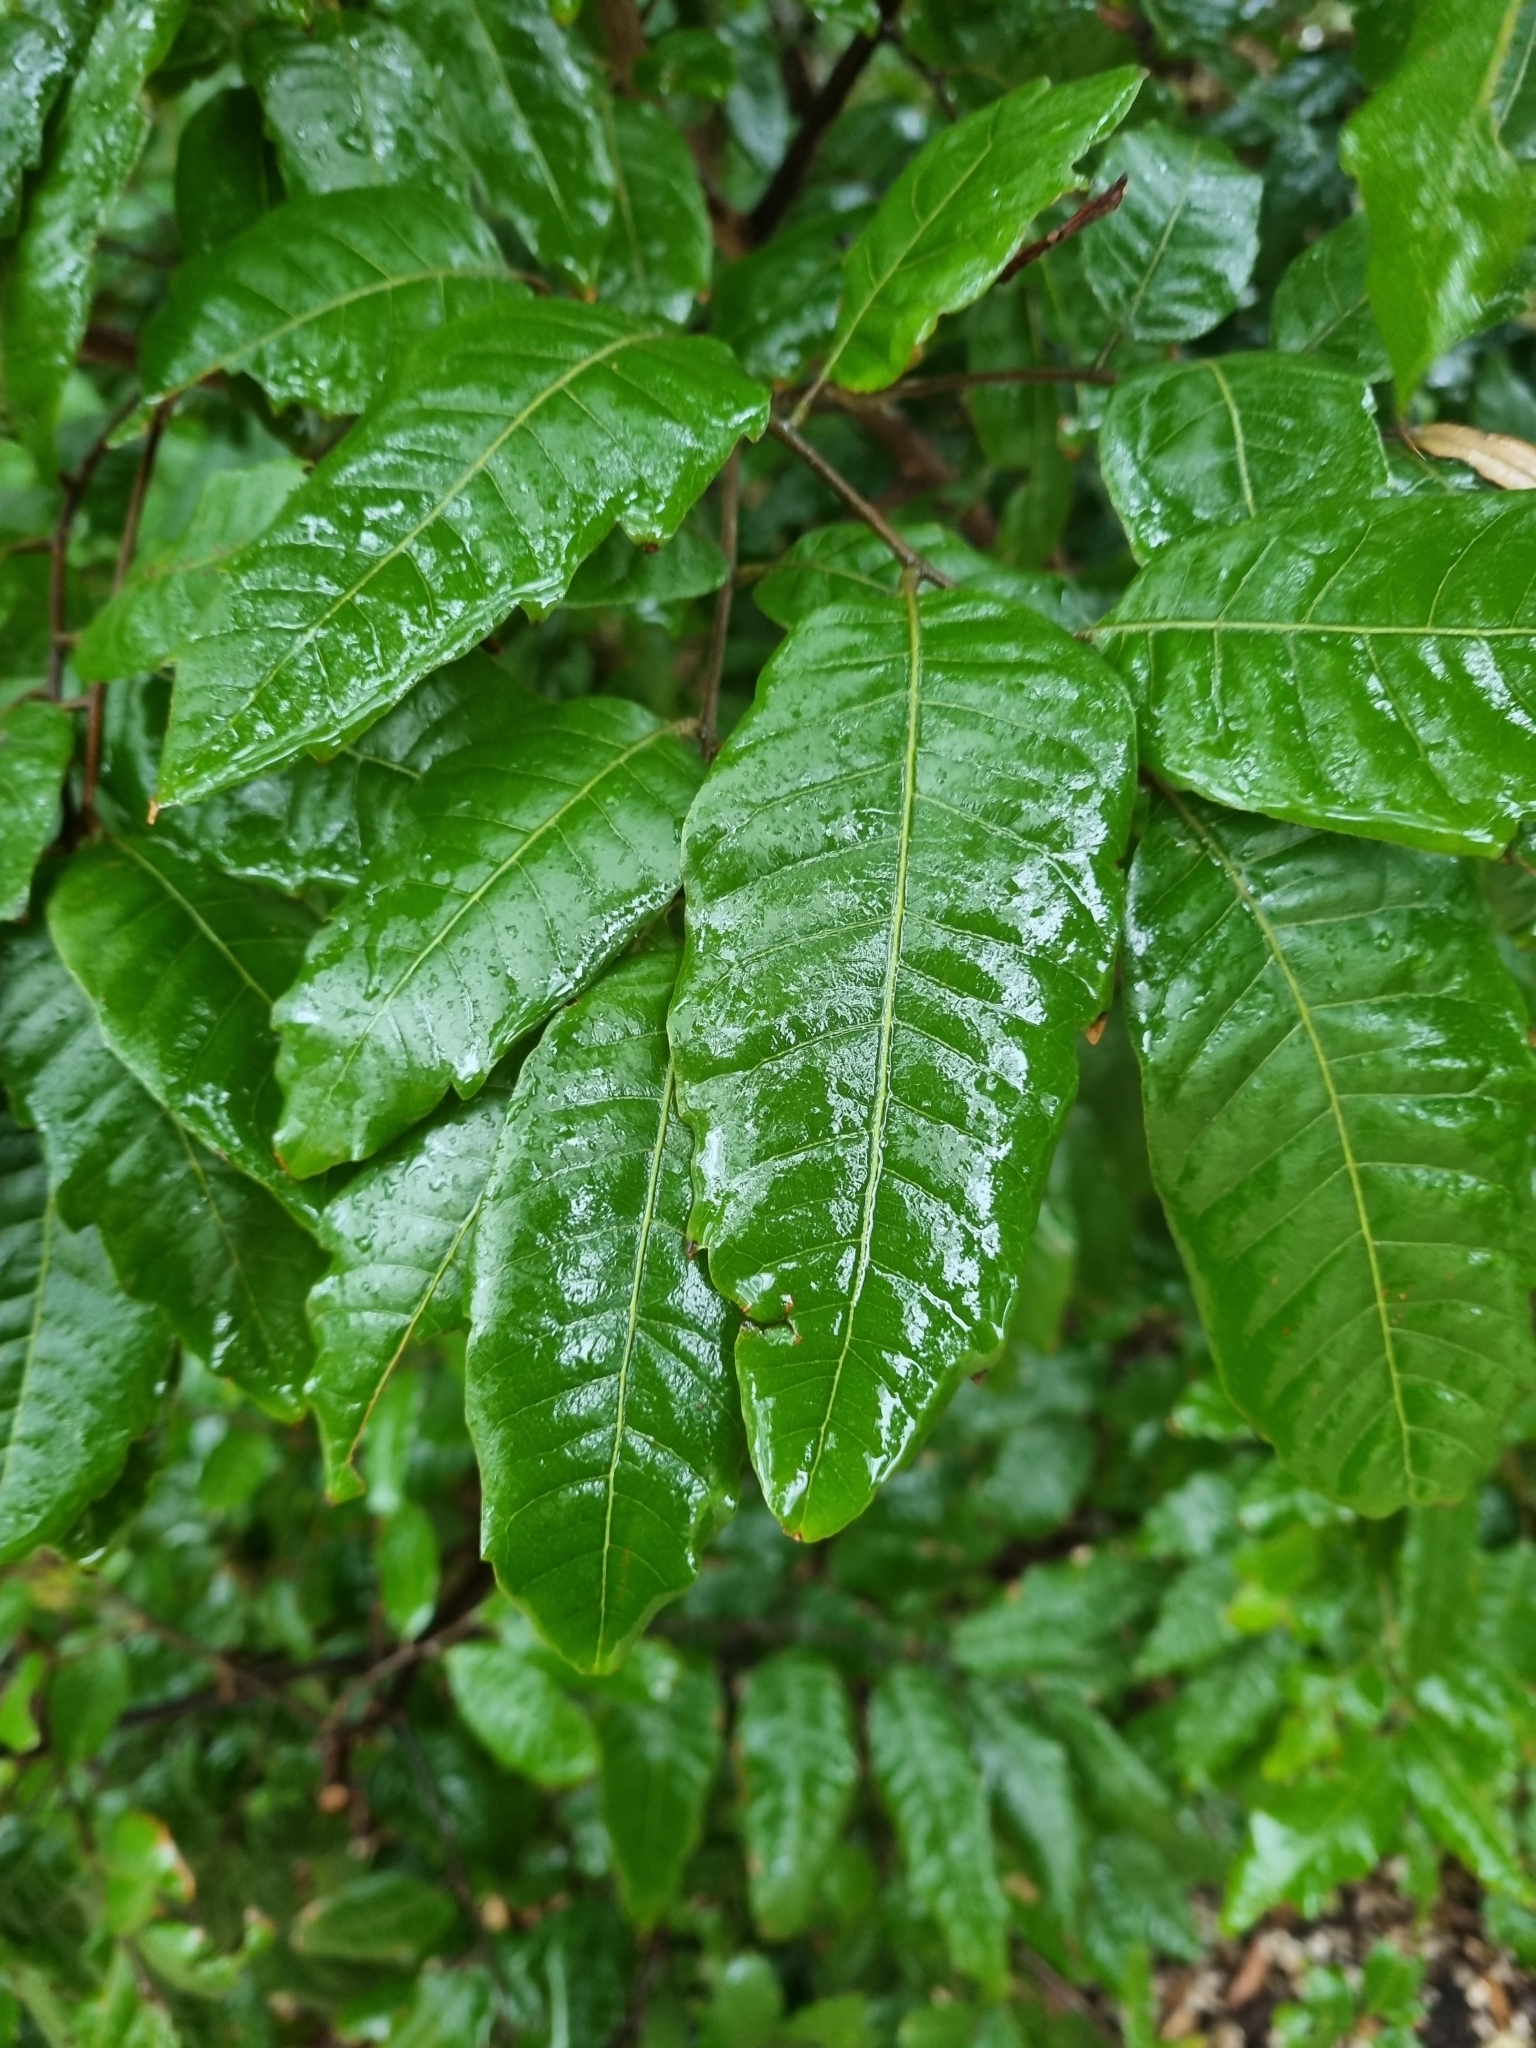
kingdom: Plantae
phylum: Tracheophyta
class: Magnoliopsida
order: Sapindales
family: Sapindaceae
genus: Alectryon
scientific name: Alectryon excelsus
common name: Three kings titoki
